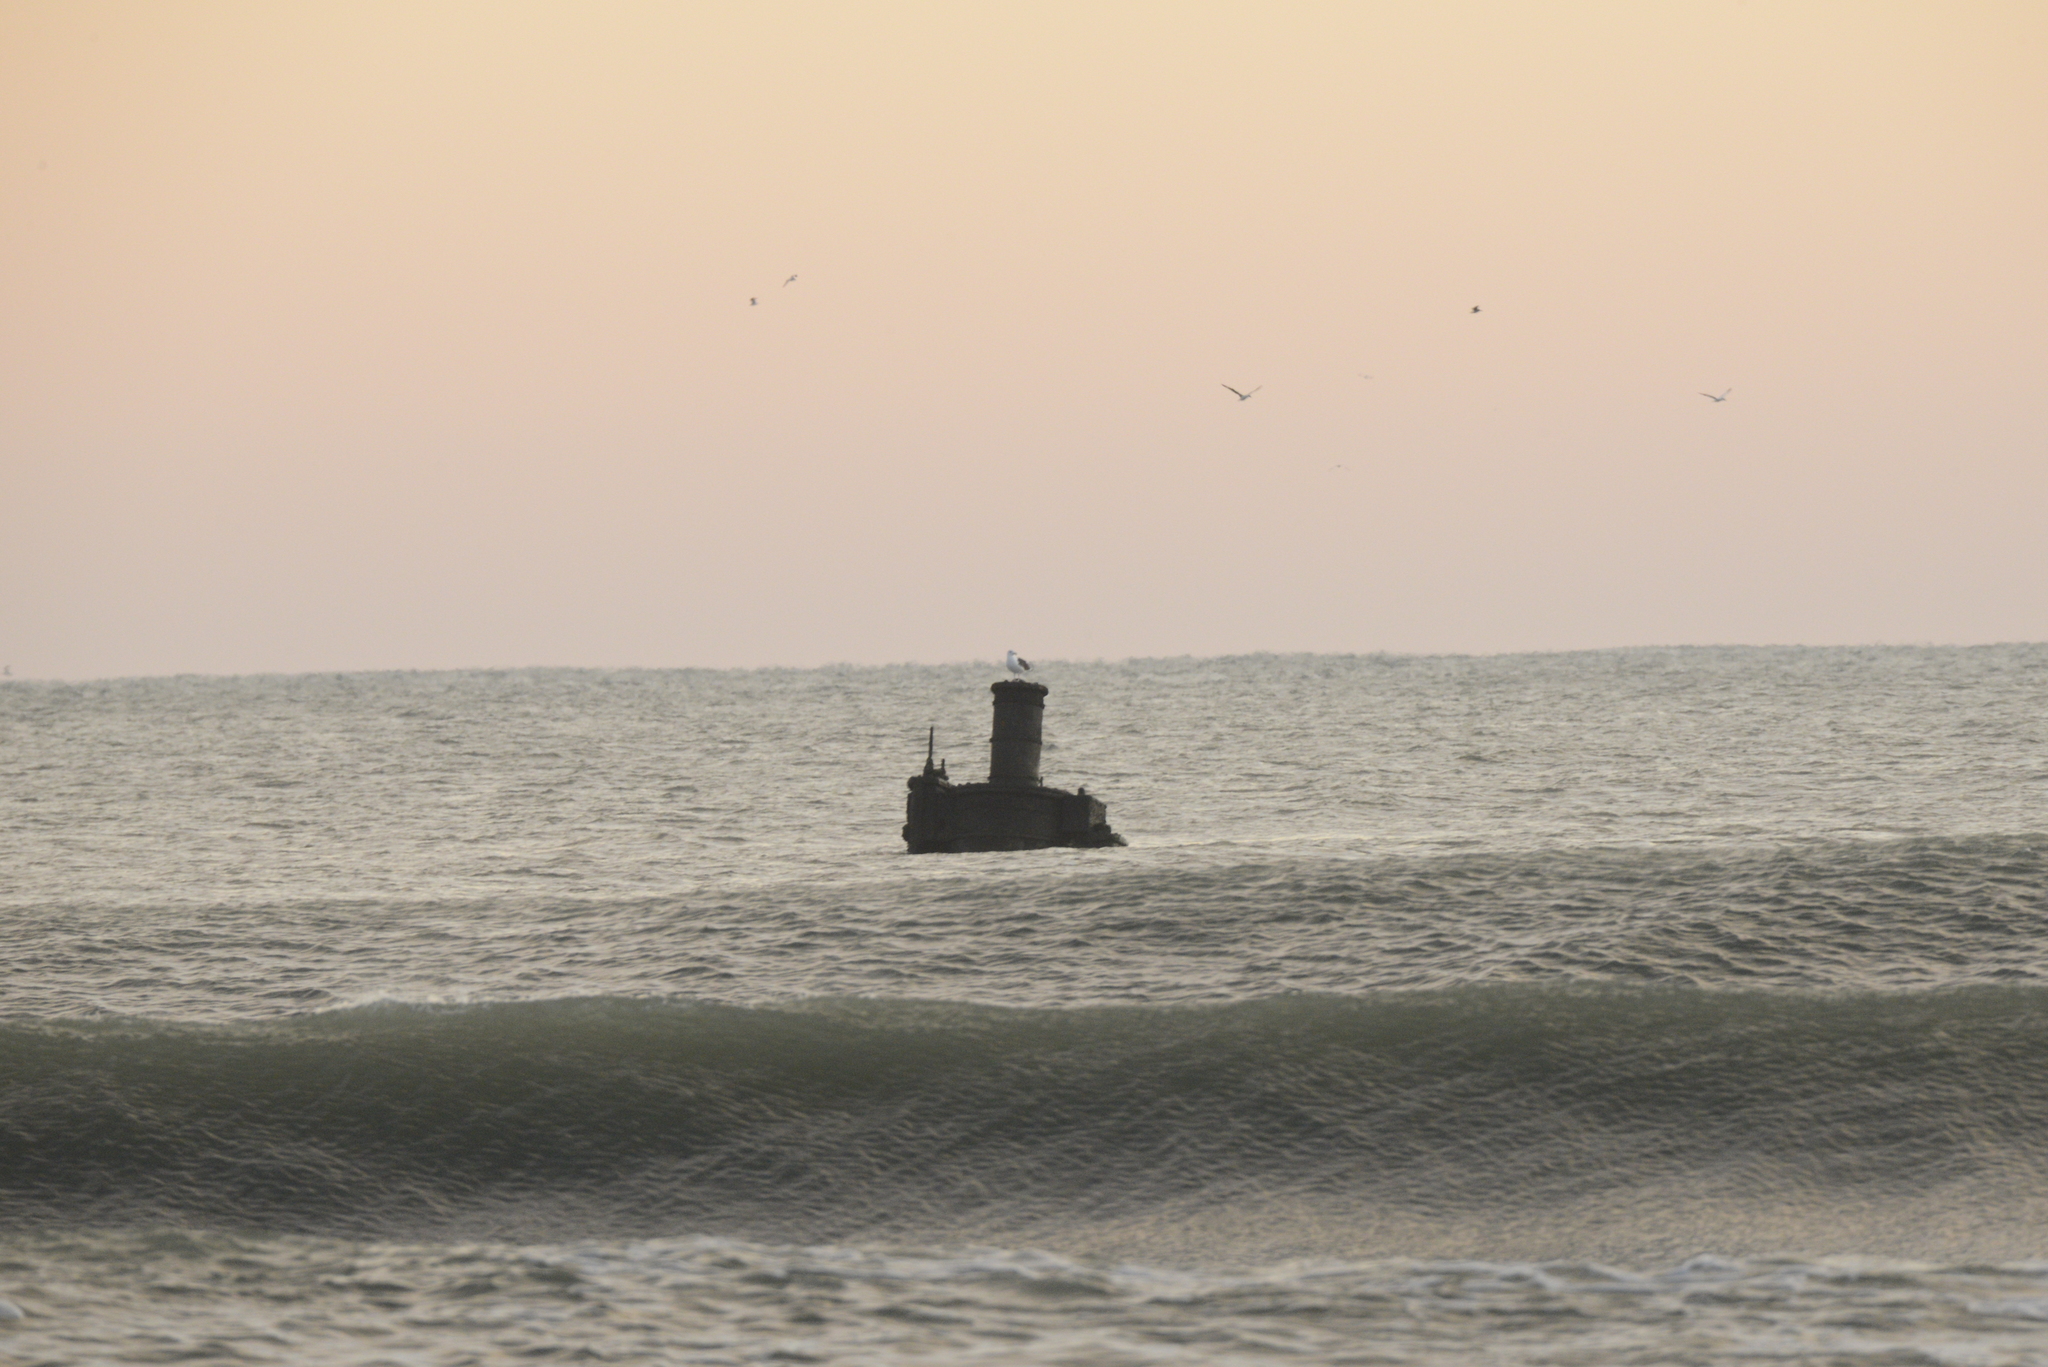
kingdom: Animalia
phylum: Chordata
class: Aves
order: Charadriiformes
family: Laridae
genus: Larus
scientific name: Larus marinus
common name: Great black-backed gull
